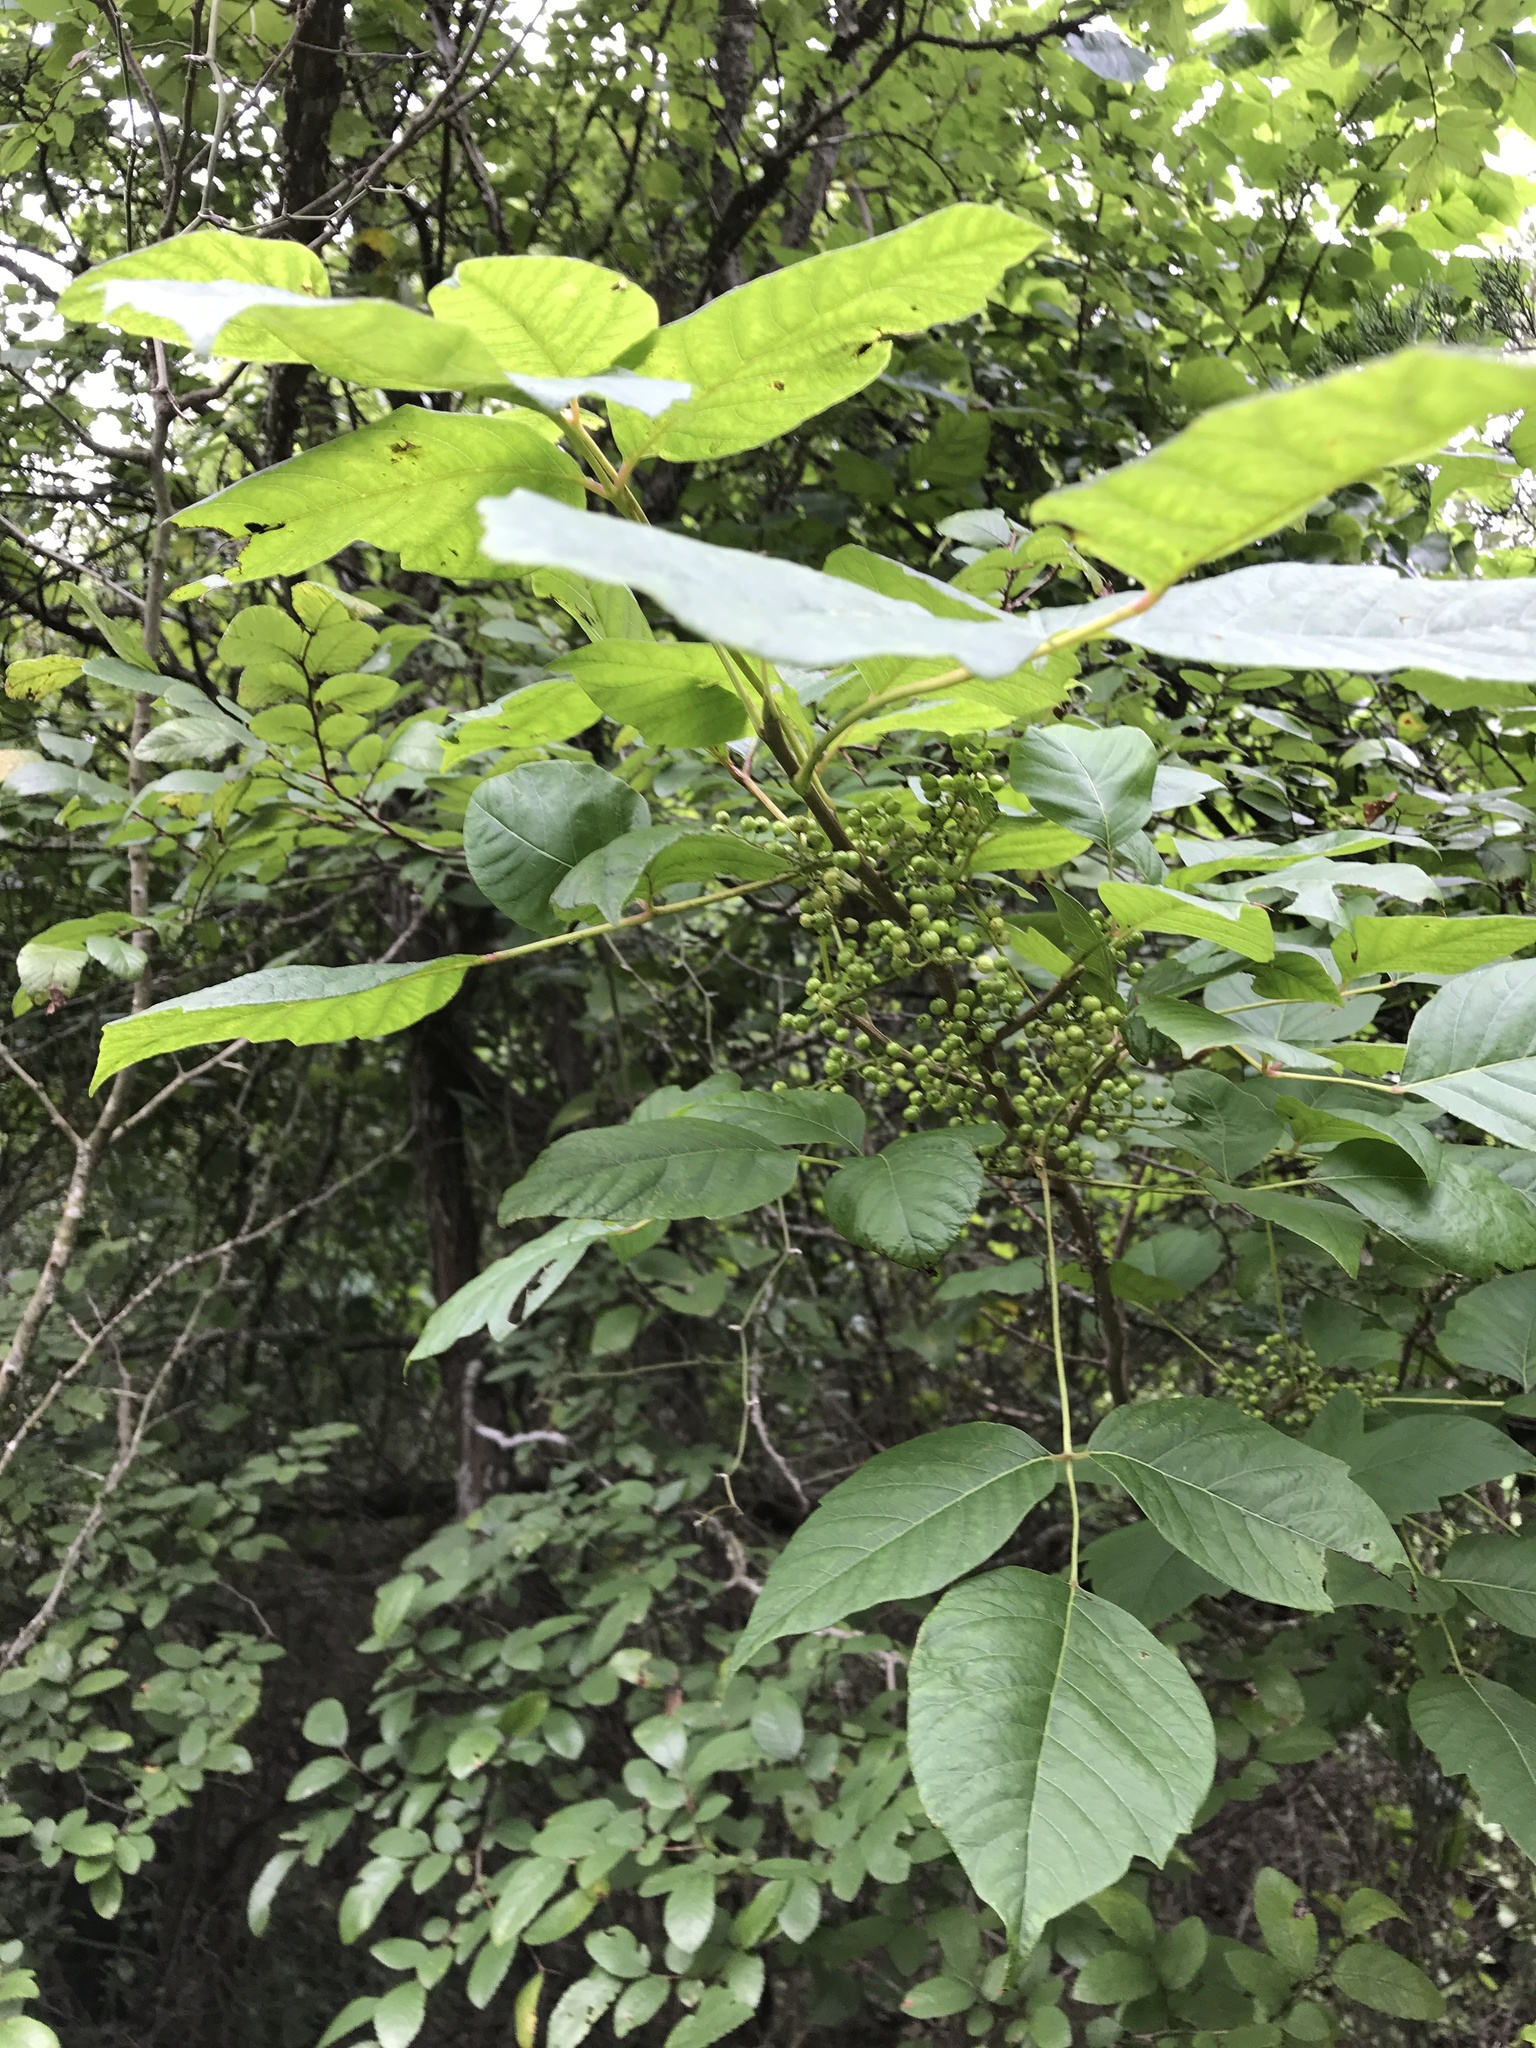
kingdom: Plantae
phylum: Tracheophyta
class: Magnoliopsida
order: Sapindales
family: Anacardiaceae
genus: Toxicodendron
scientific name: Toxicodendron radicans
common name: Poison ivy
